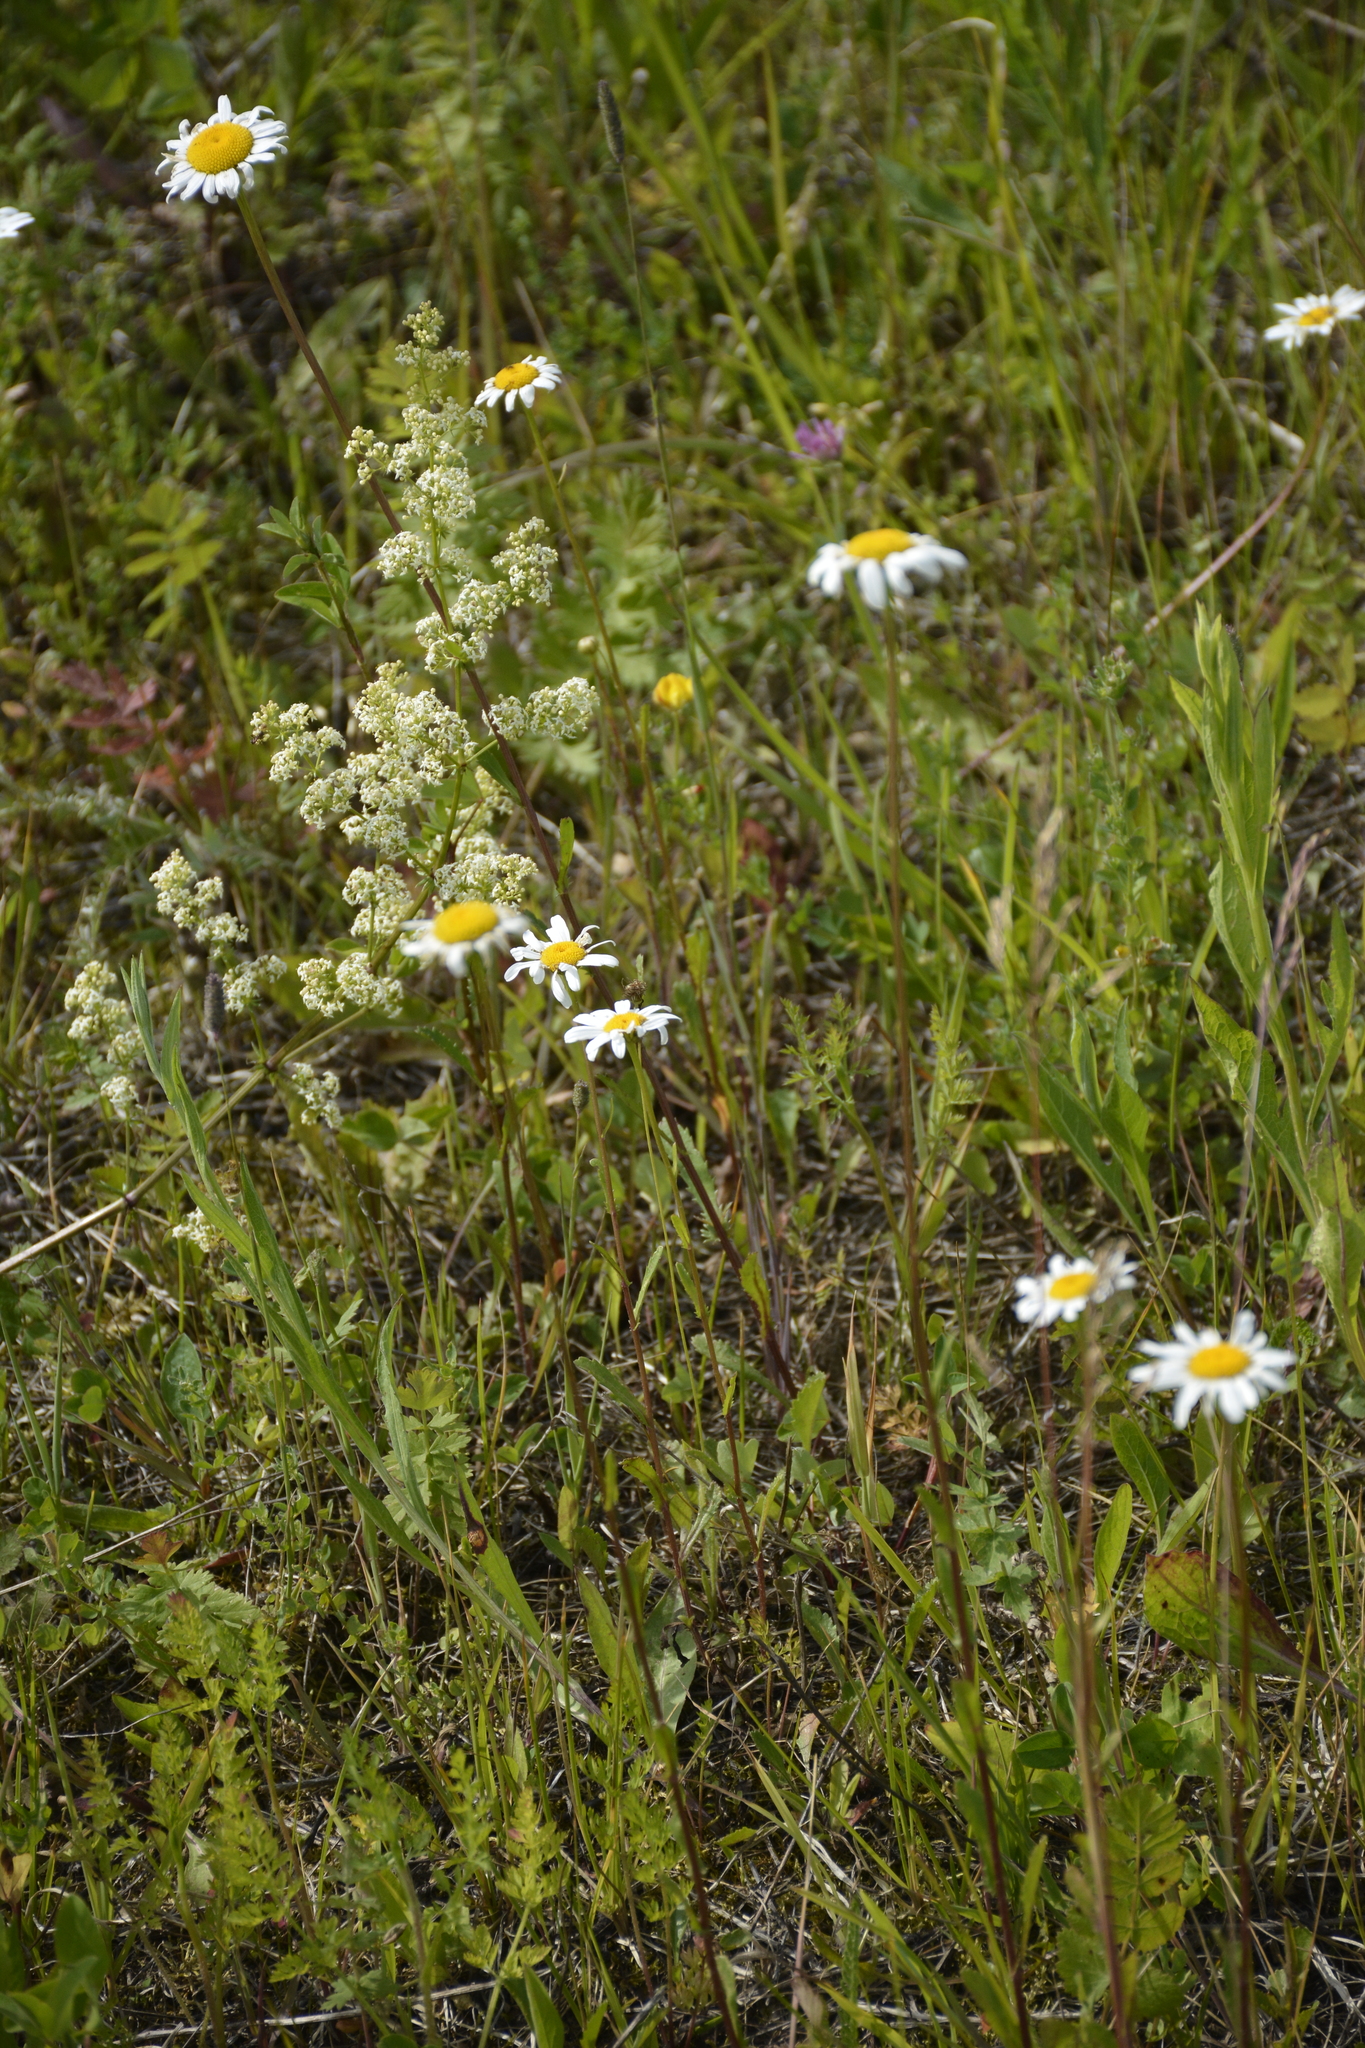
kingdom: Plantae
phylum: Tracheophyta
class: Magnoliopsida
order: Asterales
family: Asteraceae
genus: Leucanthemum
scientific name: Leucanthemum vulgare
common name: Oxeye daisy
